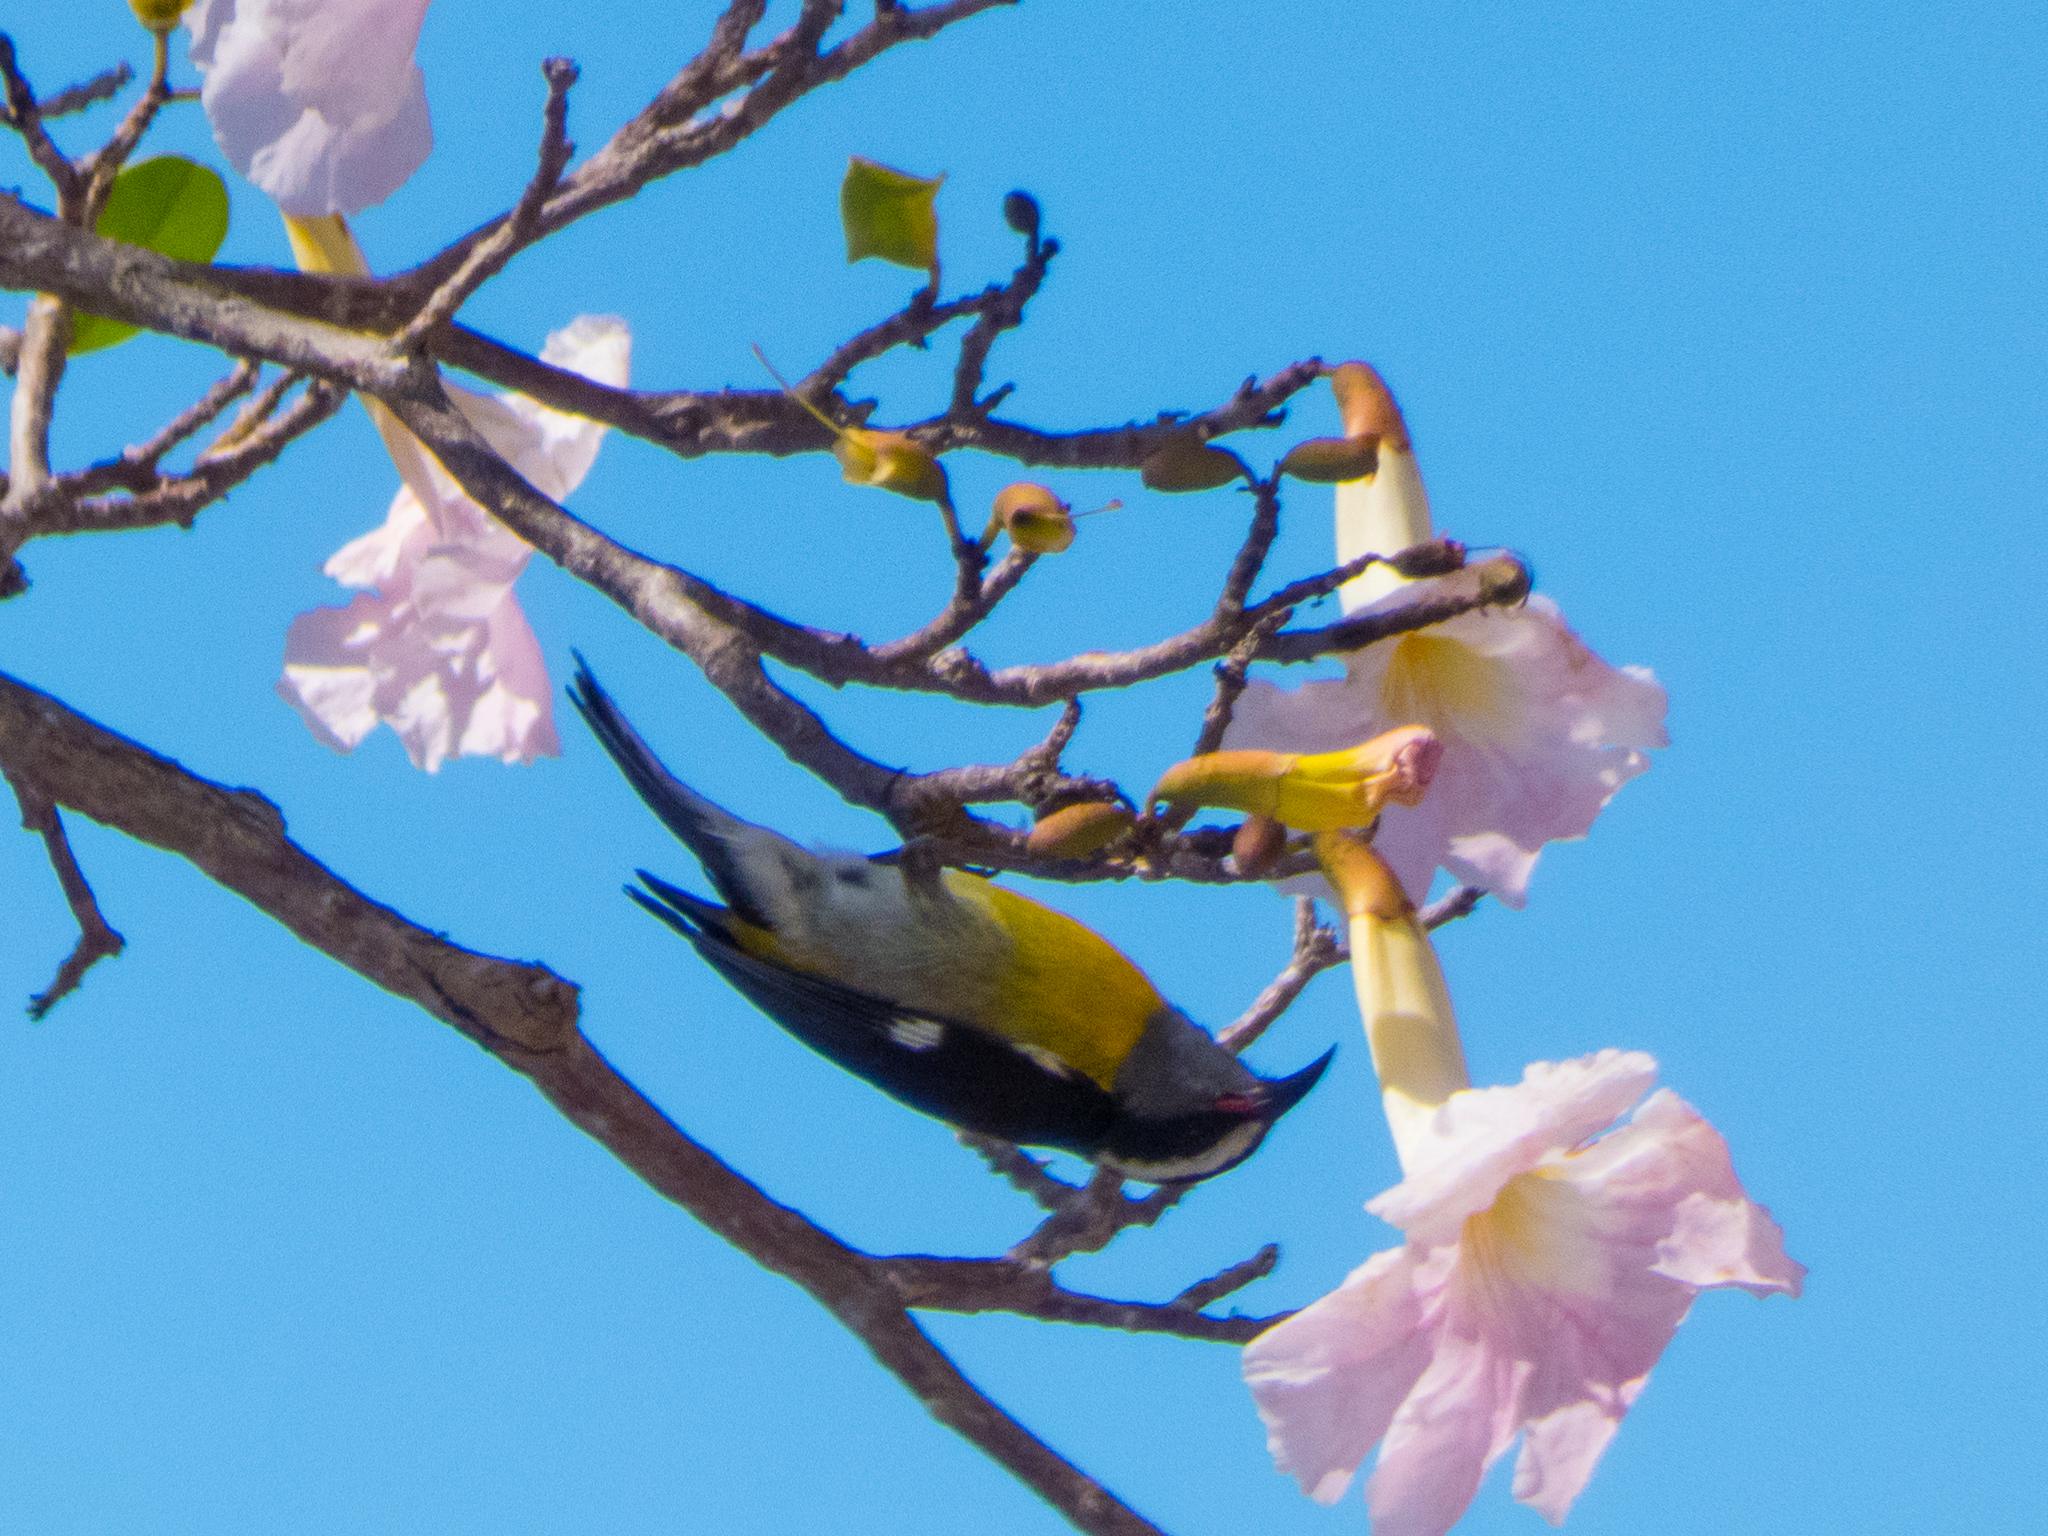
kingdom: Animalia
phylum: Chordata
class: Aves
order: Passeriformes
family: Thraupidae
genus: Coereba
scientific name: Coereba flaveola
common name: Bananaquit
